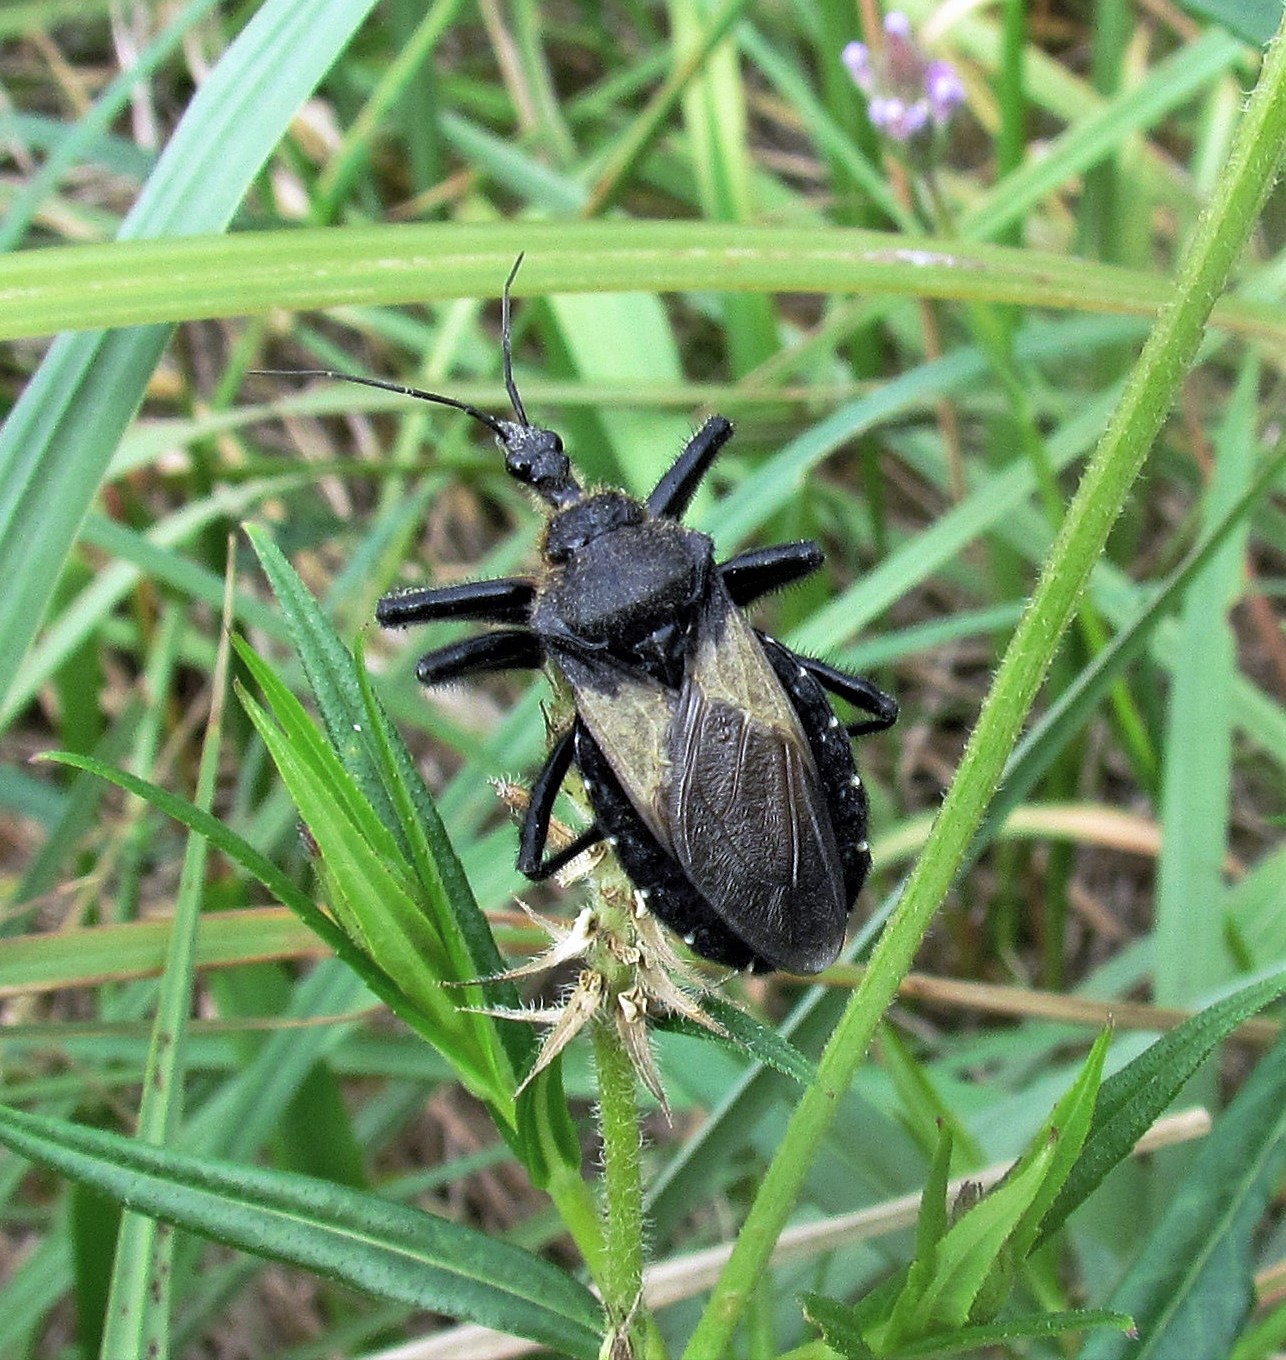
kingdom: Animalia
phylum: Arthropoda
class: Insecta
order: Hemiptera
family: Reduviidae
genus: Apiomerus
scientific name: Apiomerus lanipes
